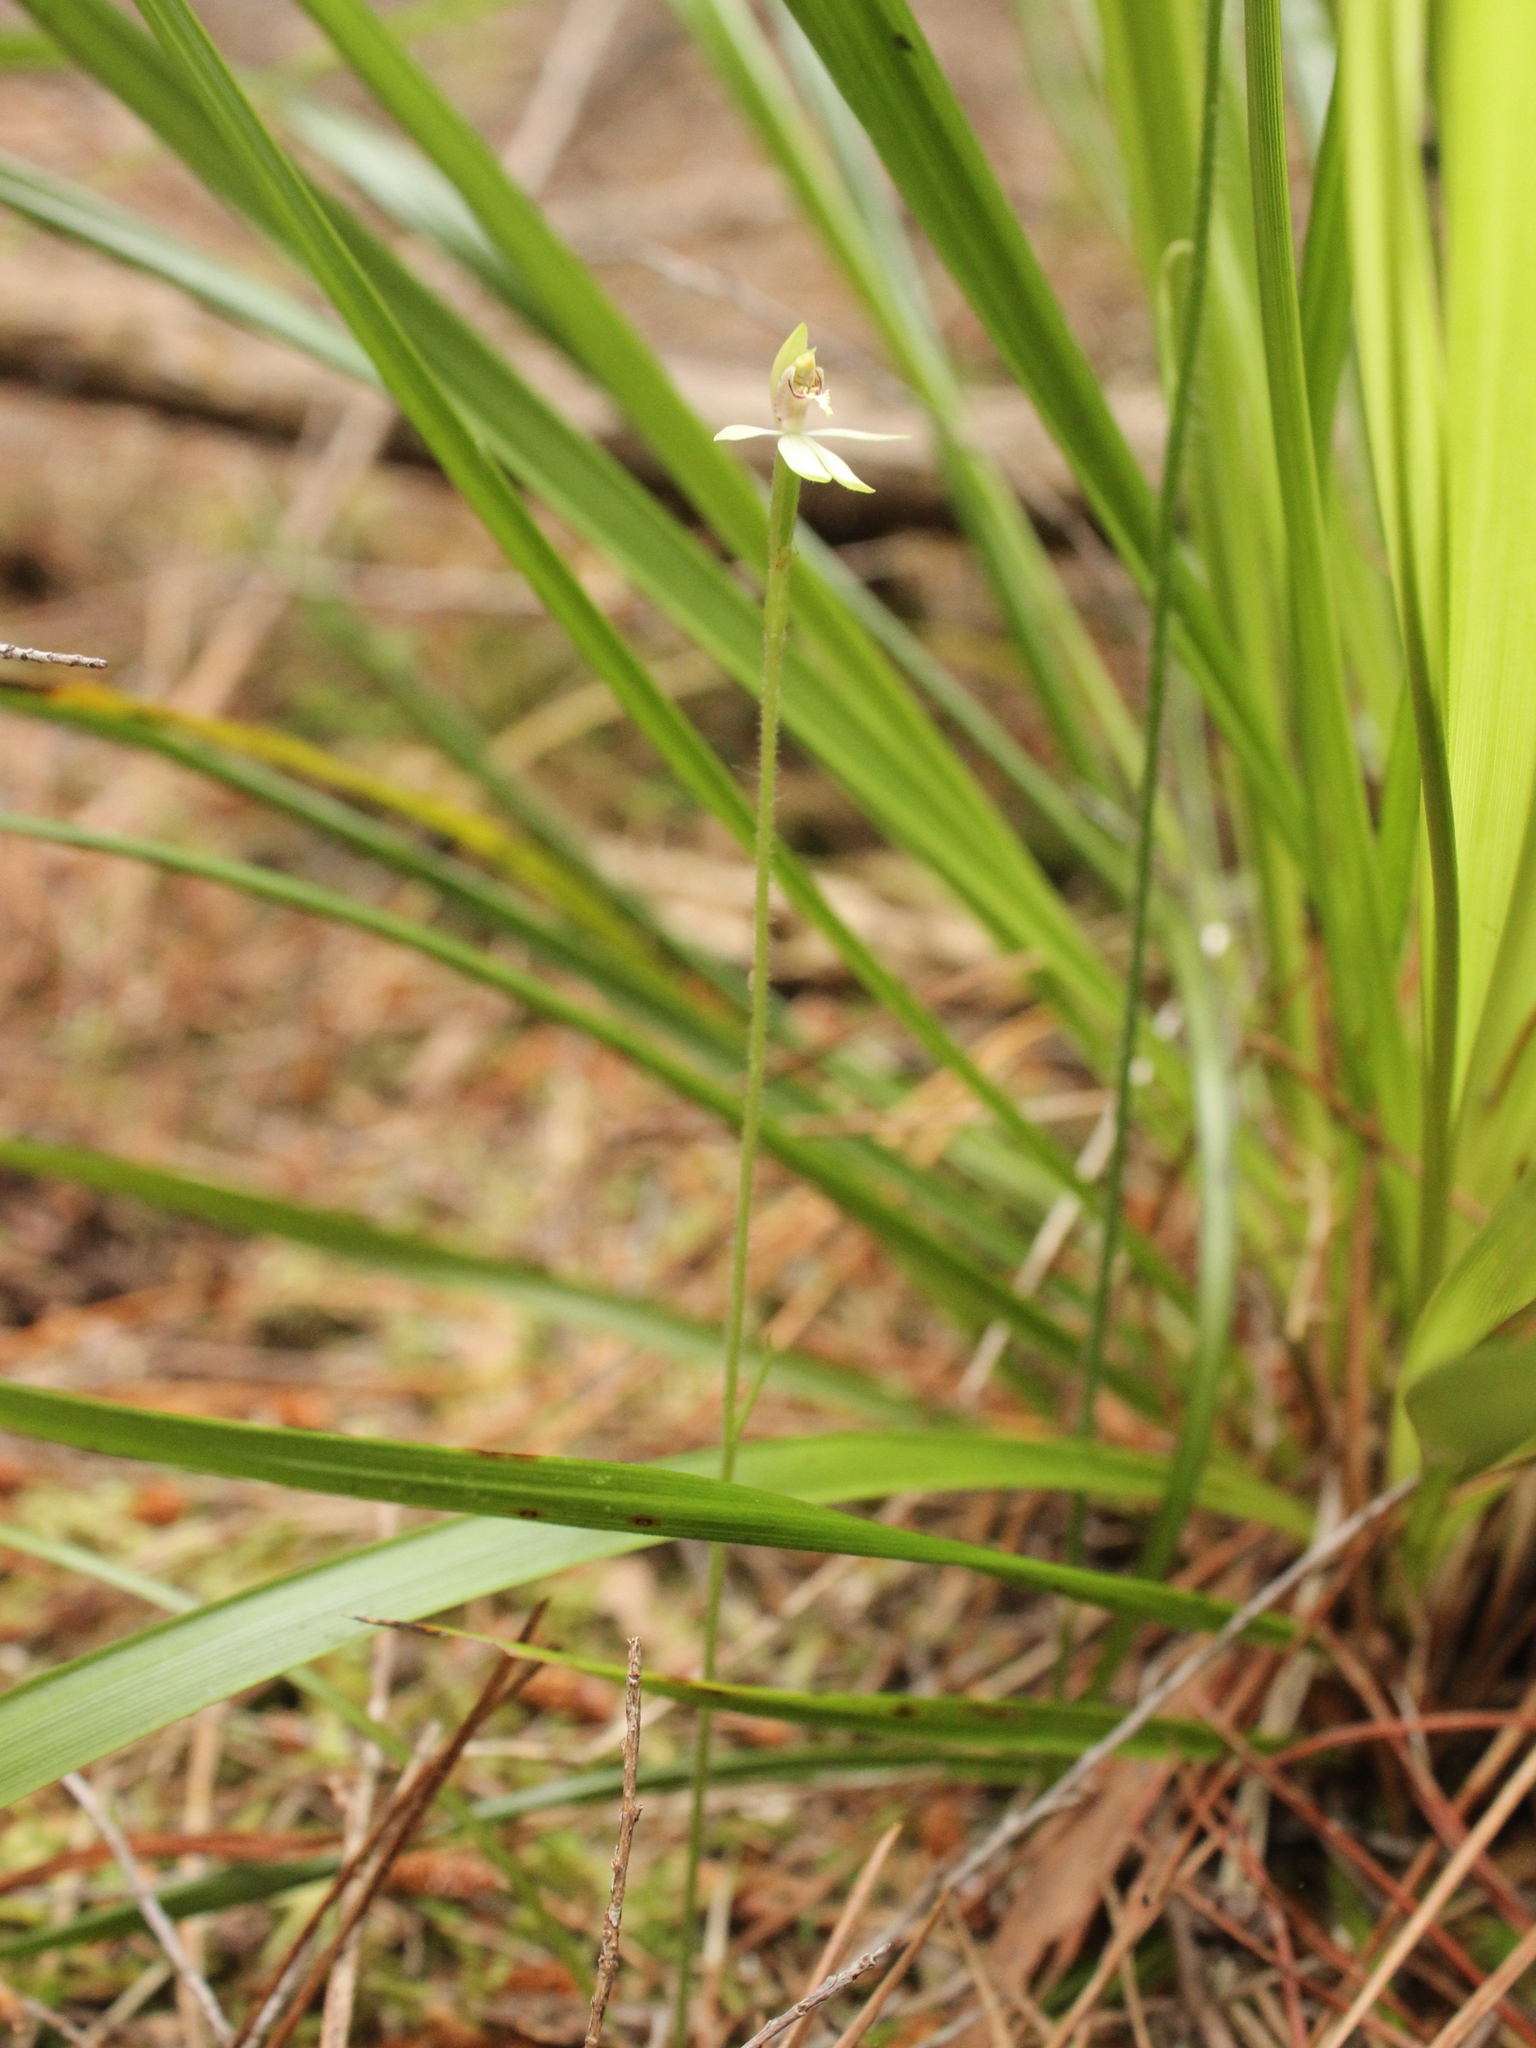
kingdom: Plantae
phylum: Tracheophyta
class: Liliopsida
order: Asparagales
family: Orchidaceae
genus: Caladenia
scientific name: Caladenia chlorostyla
